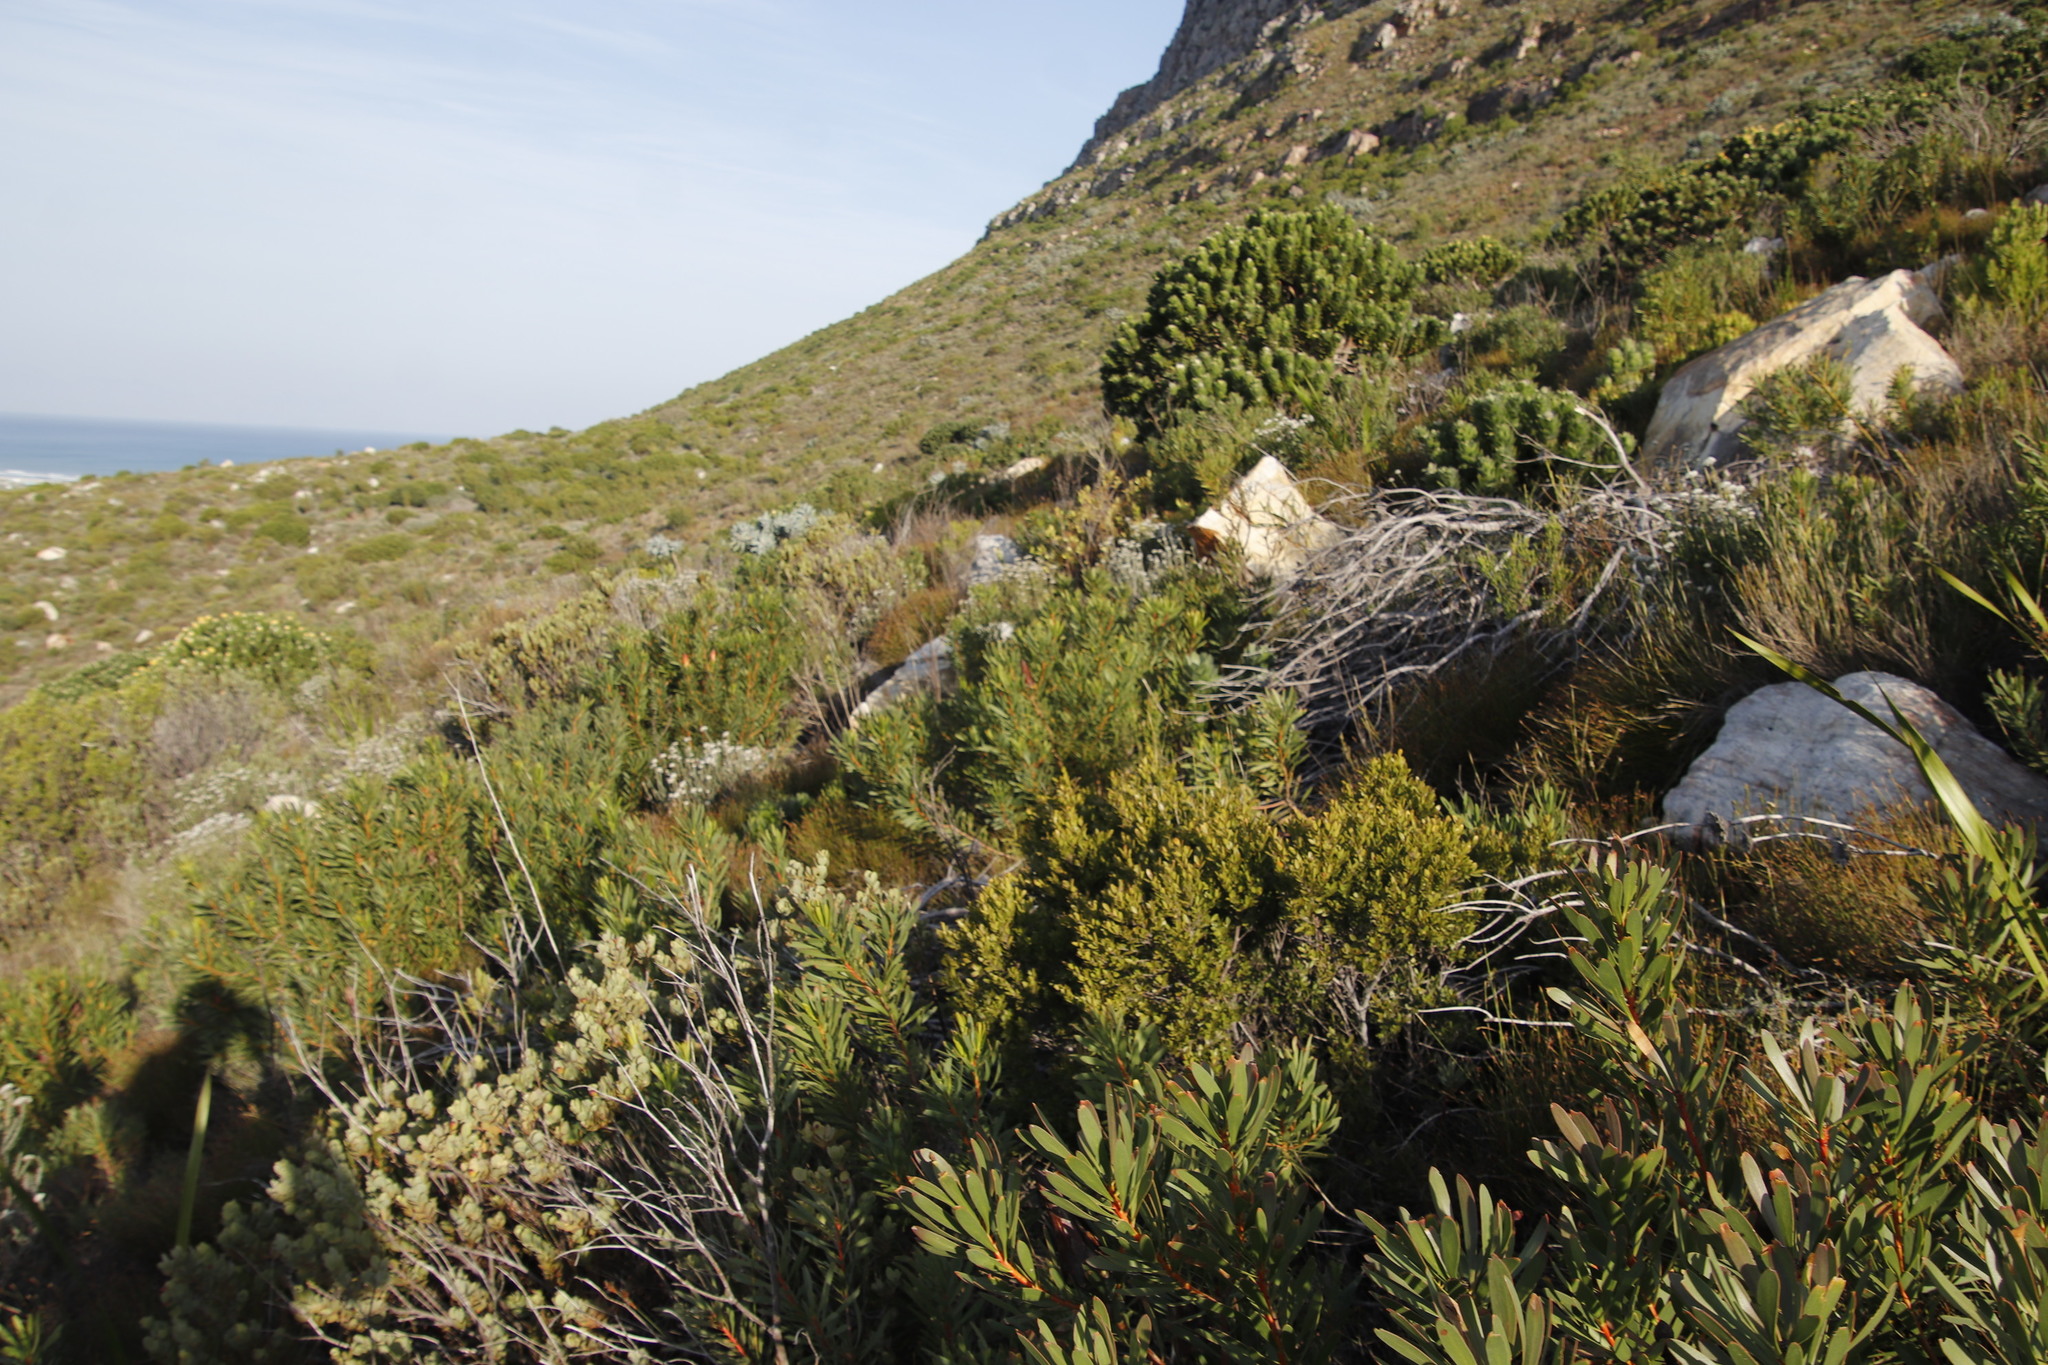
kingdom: Plantae
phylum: Tracheophyta
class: Magnoliopsida
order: Ericales
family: Ebenaceae
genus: Diospyros
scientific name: Diospyros glabra
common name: Fynbos star apple
